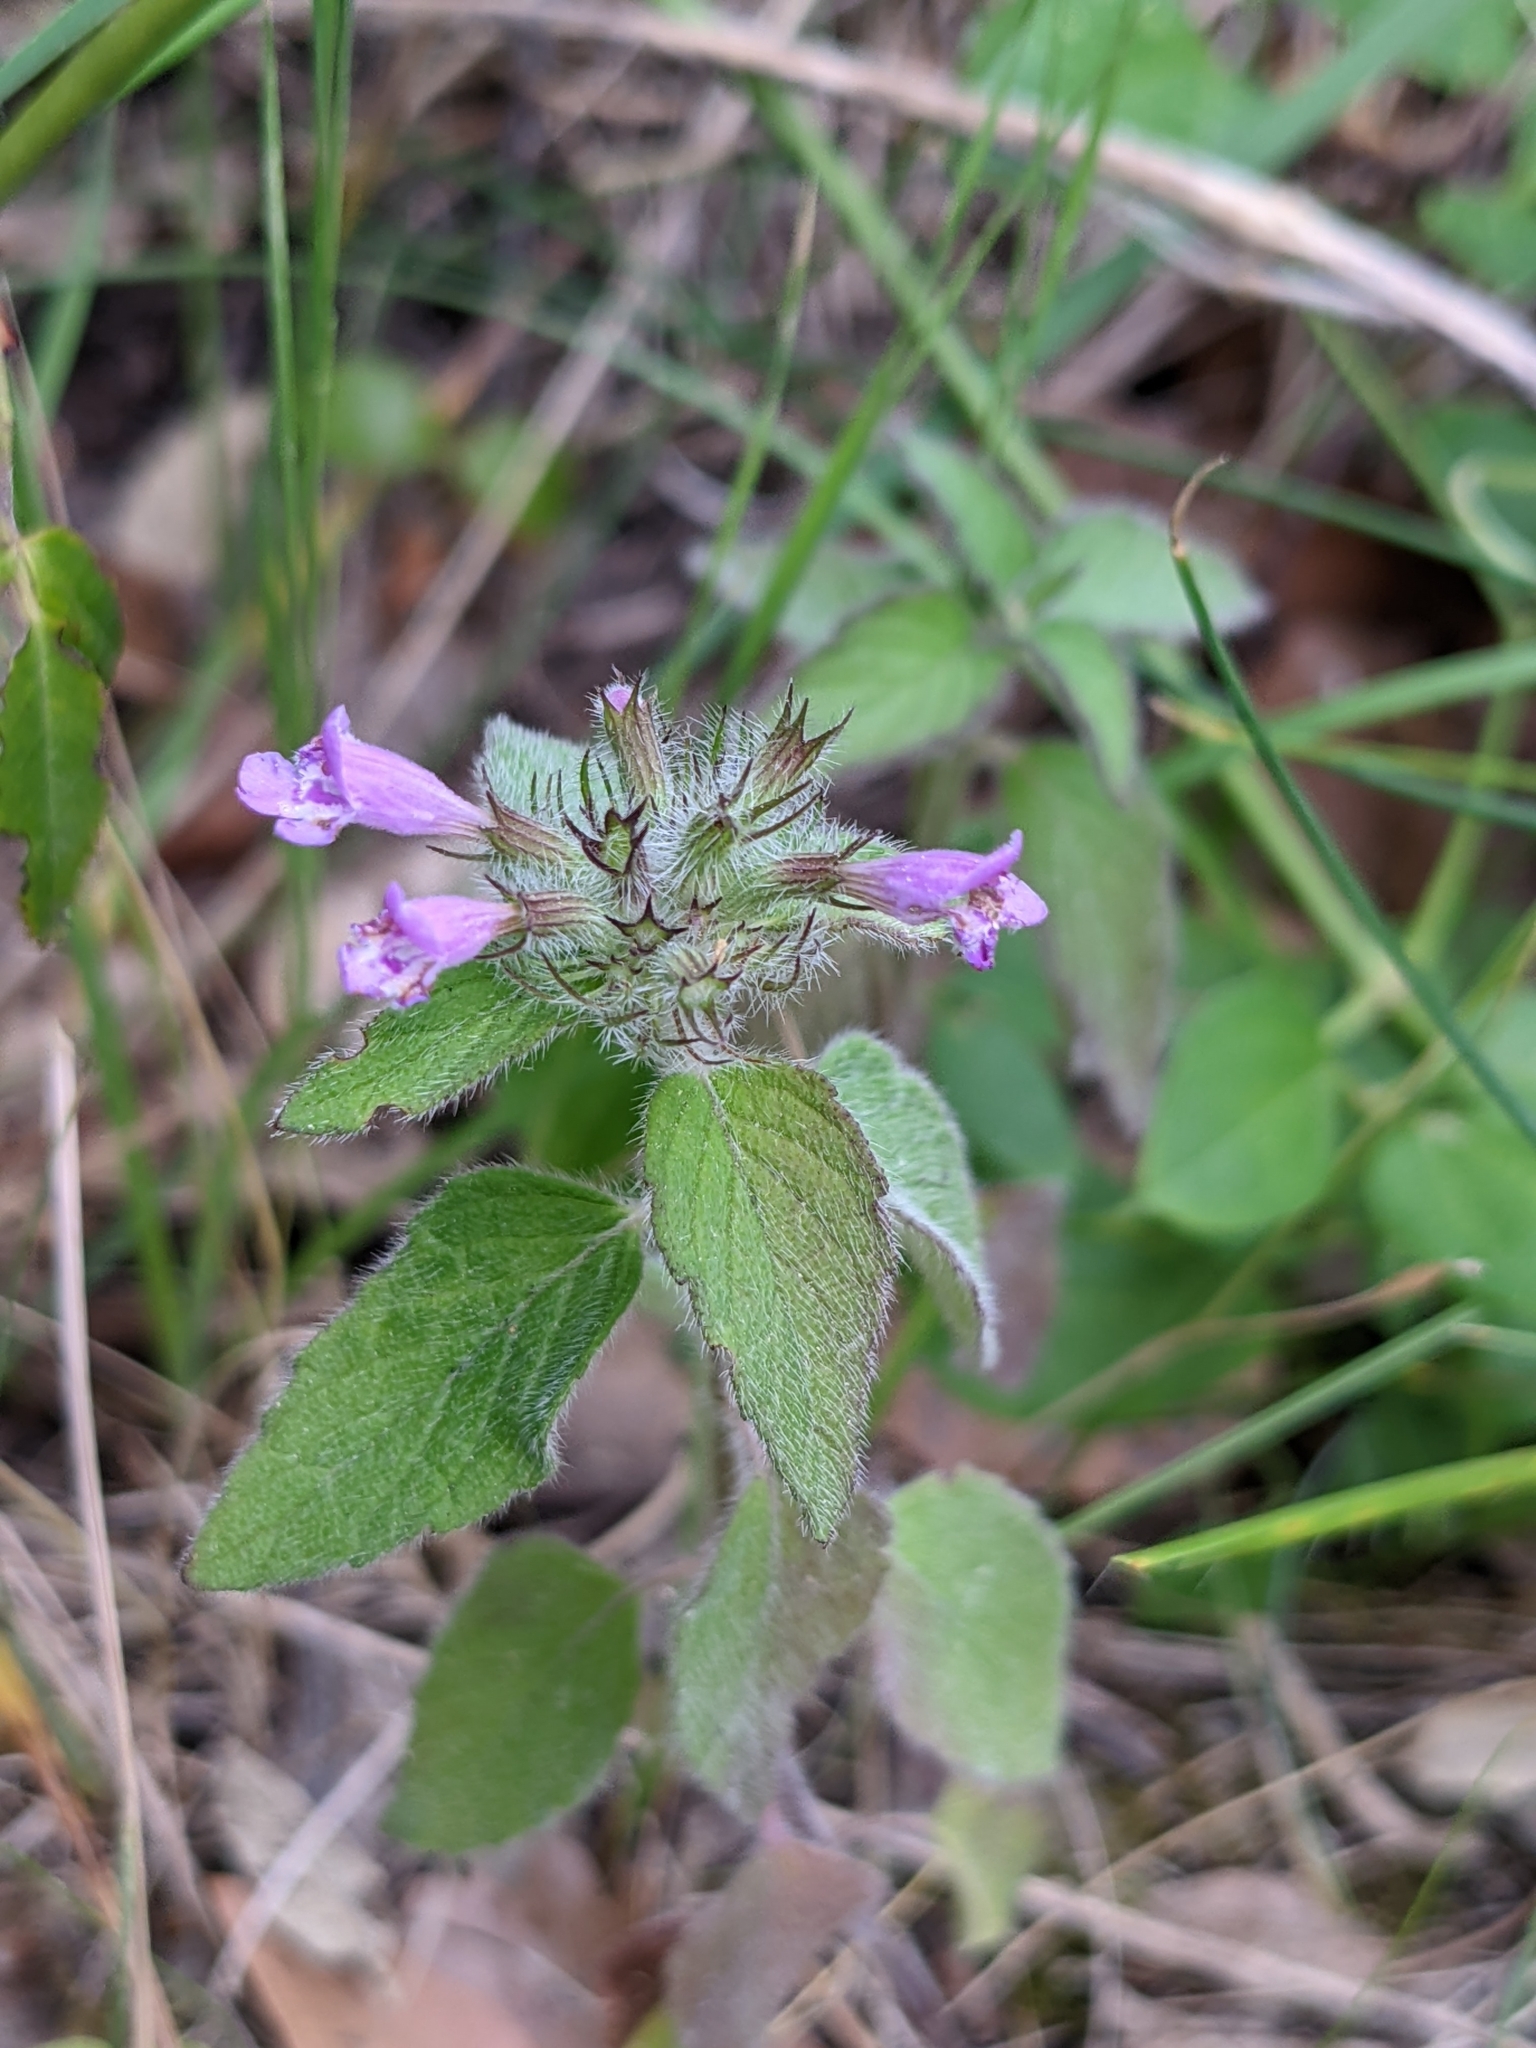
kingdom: Plantae
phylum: Tracheophyta
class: Magnoliopsida
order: Lamiales
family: Lamiaceae
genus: Clinopodium
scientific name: Clinopodium vulgare
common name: Wild basil
